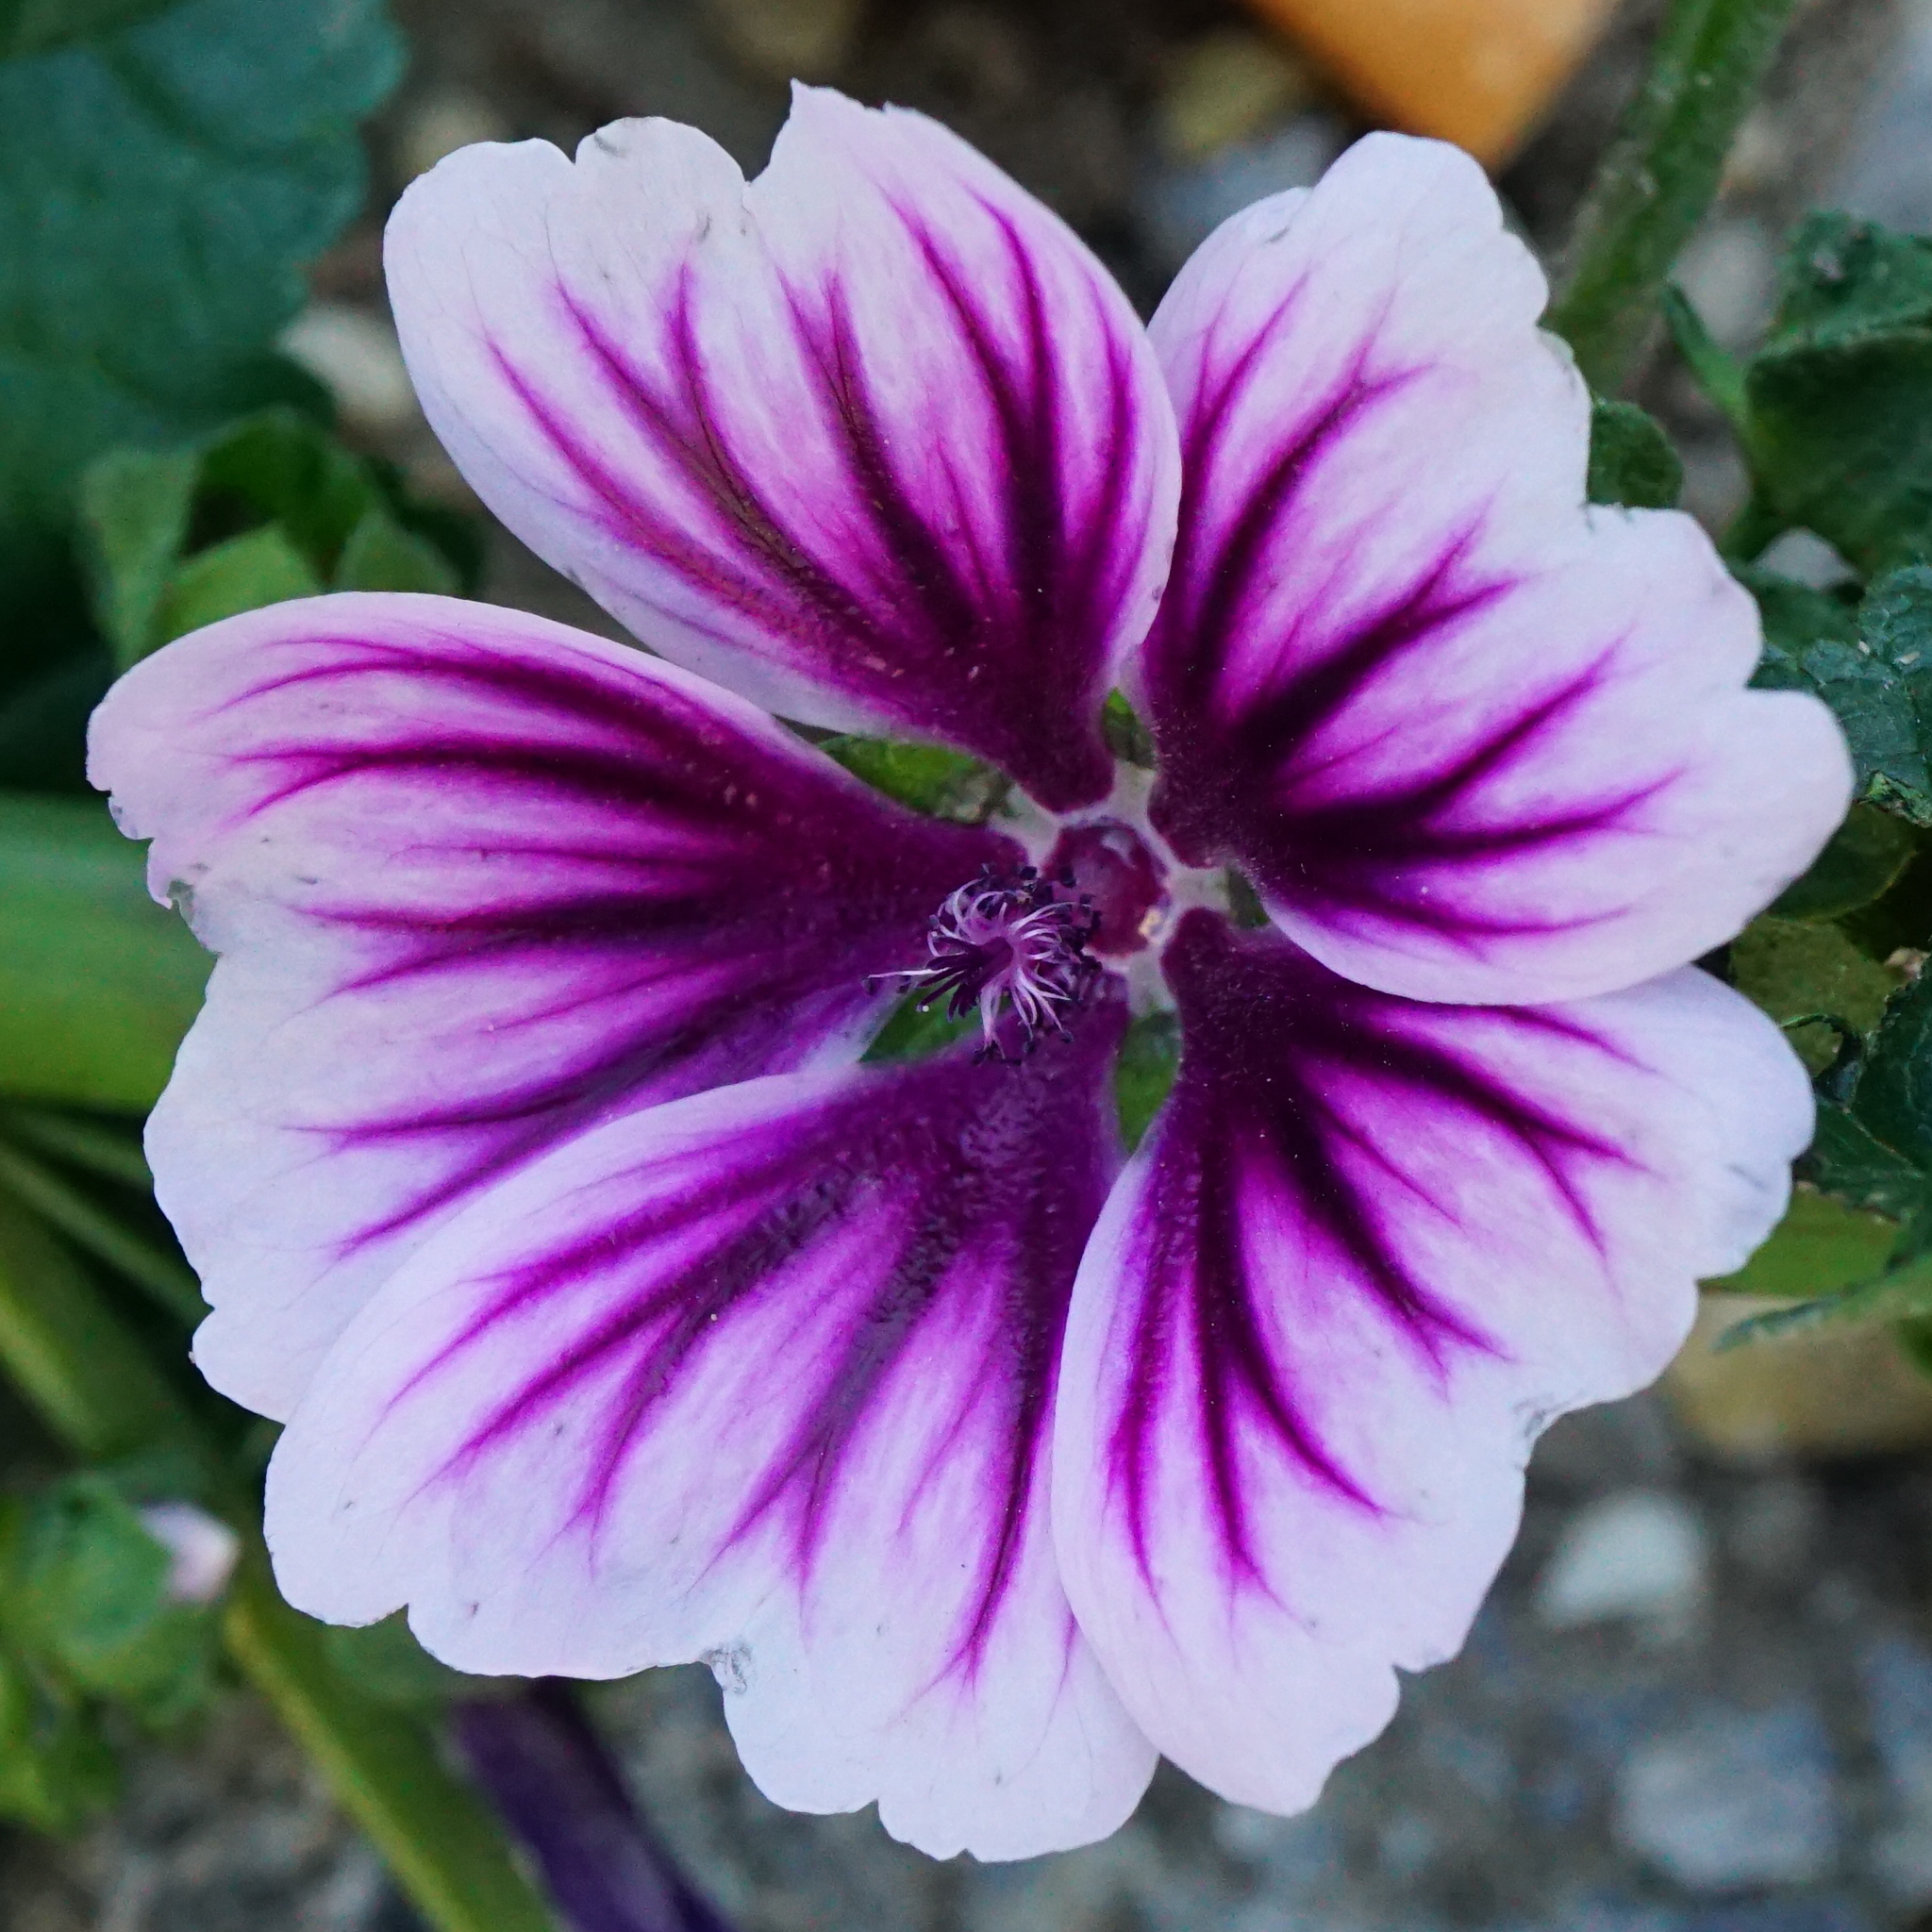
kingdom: Plantae
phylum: Tracheophyta
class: Magnoliopsida
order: Malvales
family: Malvaceae
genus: Malva
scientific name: Malva sylvestris
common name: Common mallow
